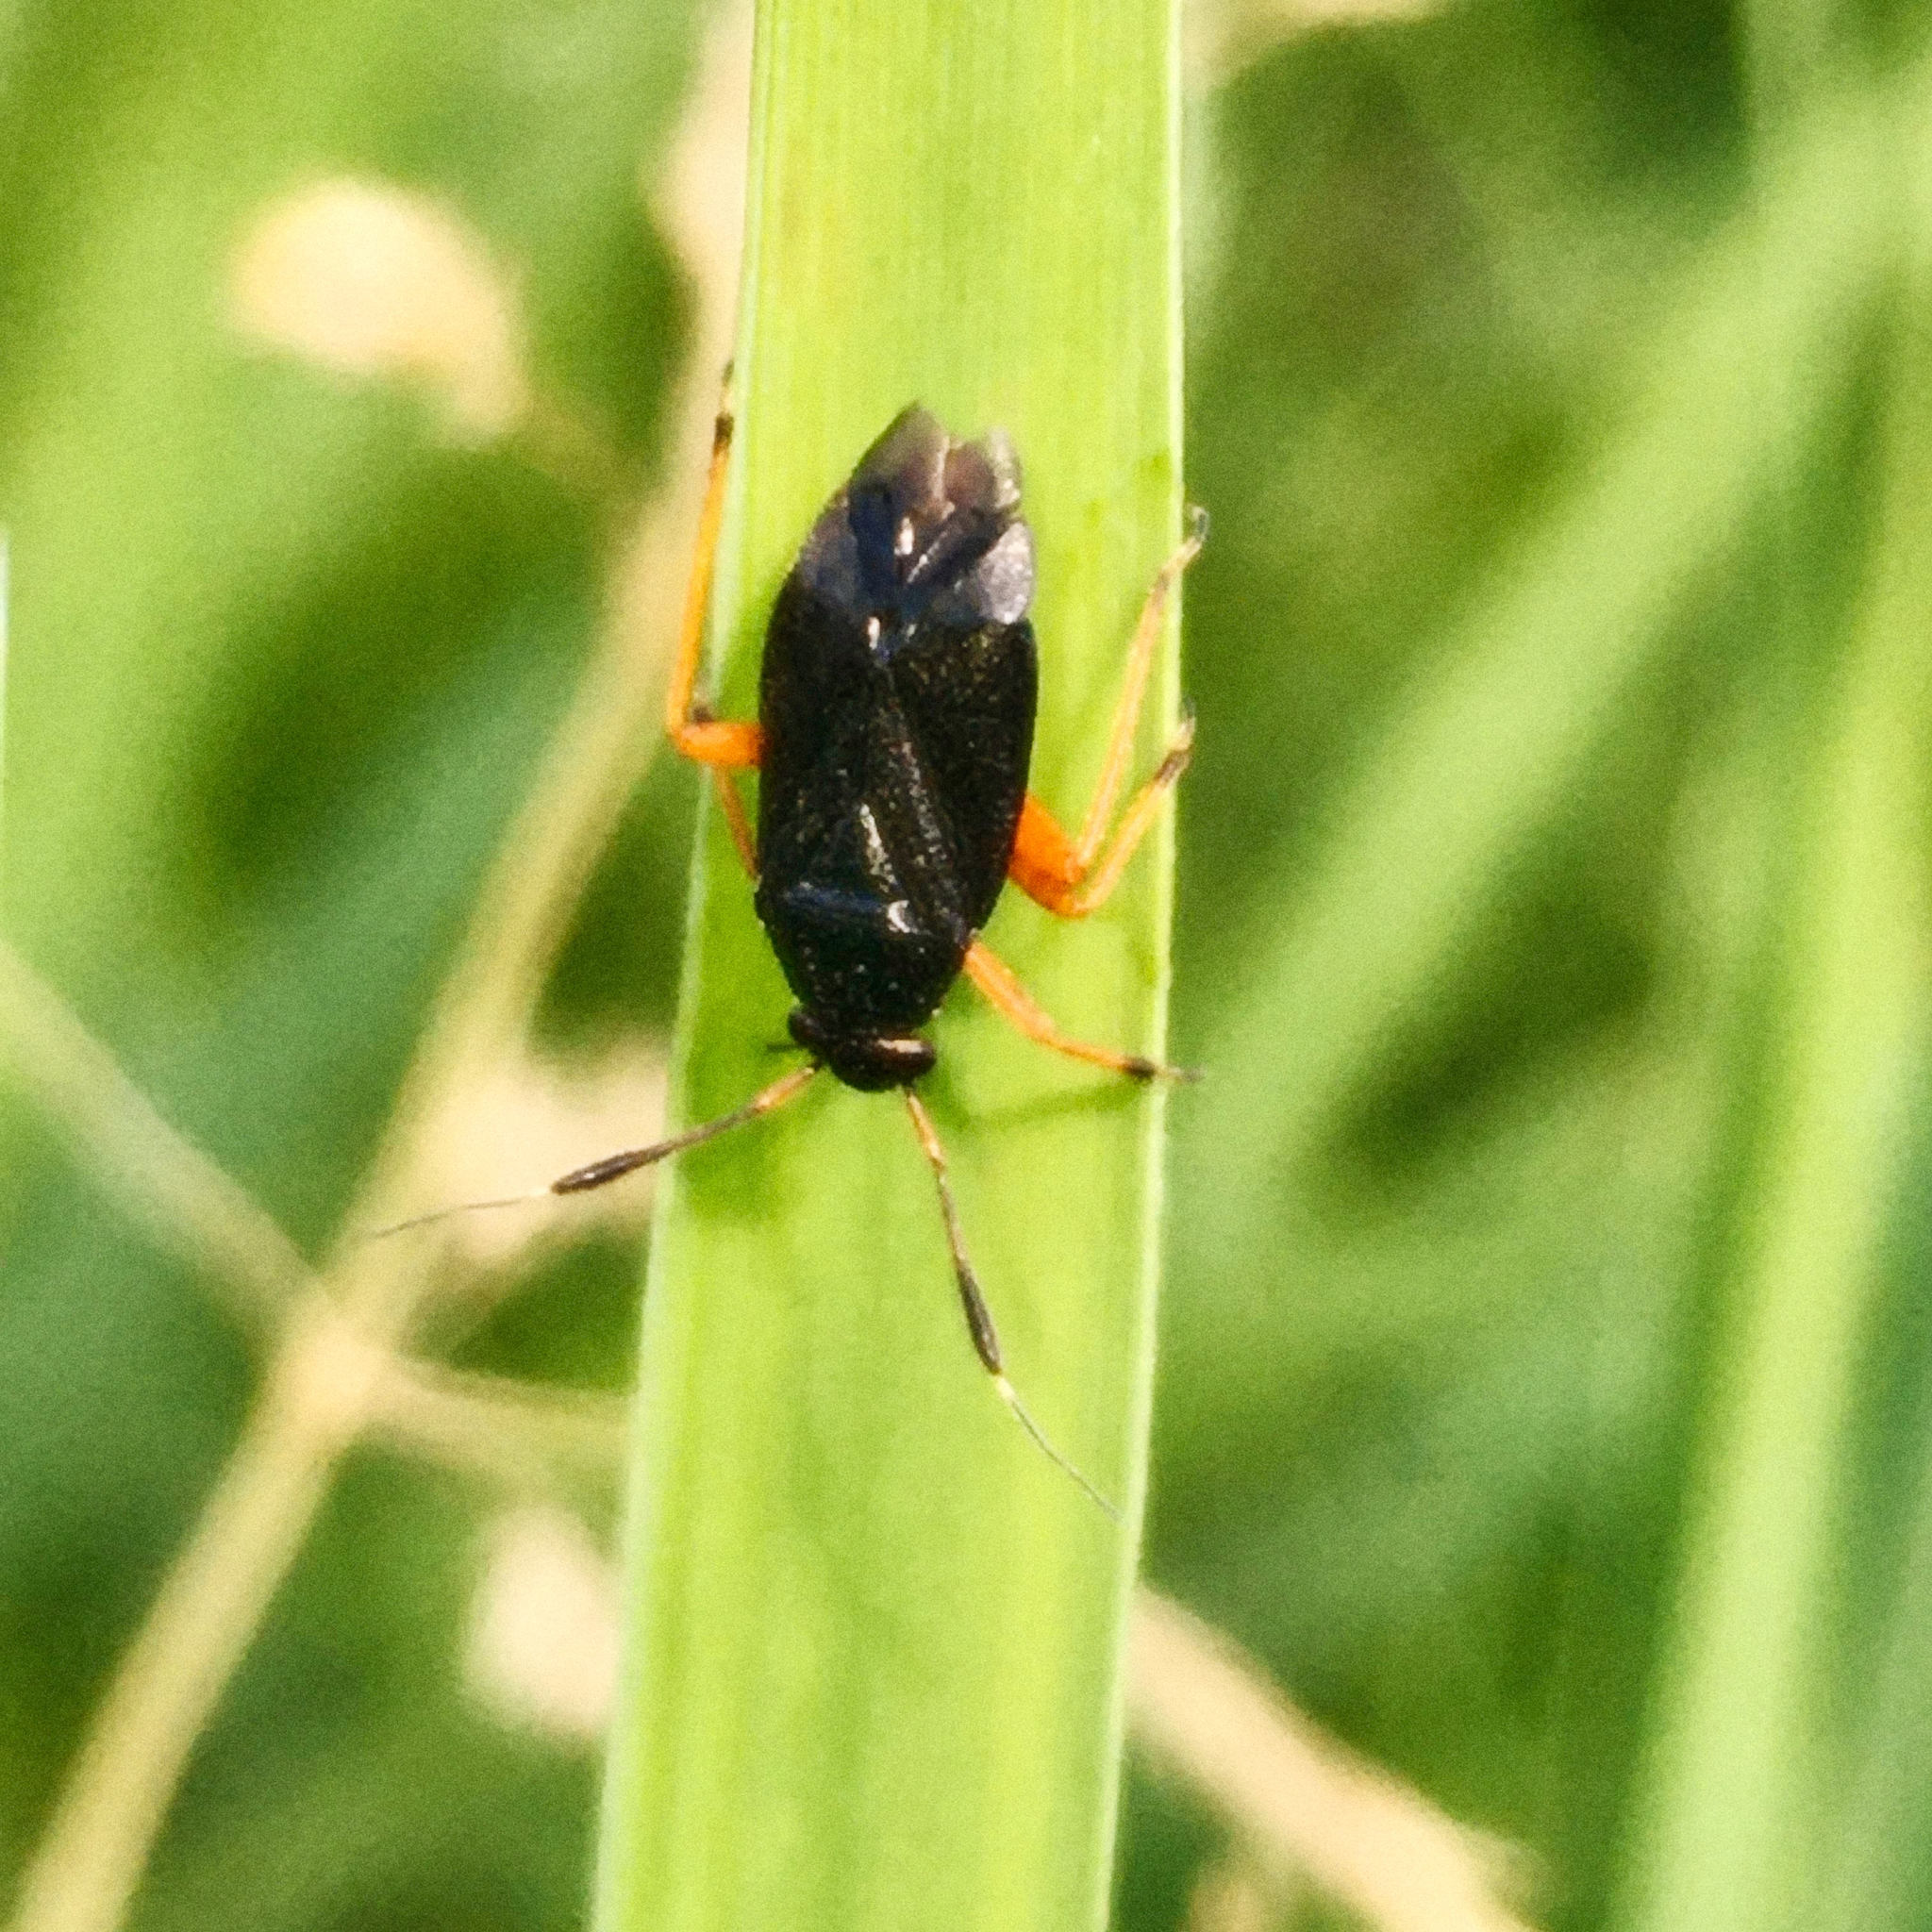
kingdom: Animalia
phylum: Arthropoda
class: Insecta
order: Hemiptera
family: Miridae
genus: Capsus
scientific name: Capsus ater
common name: Black plant bug
